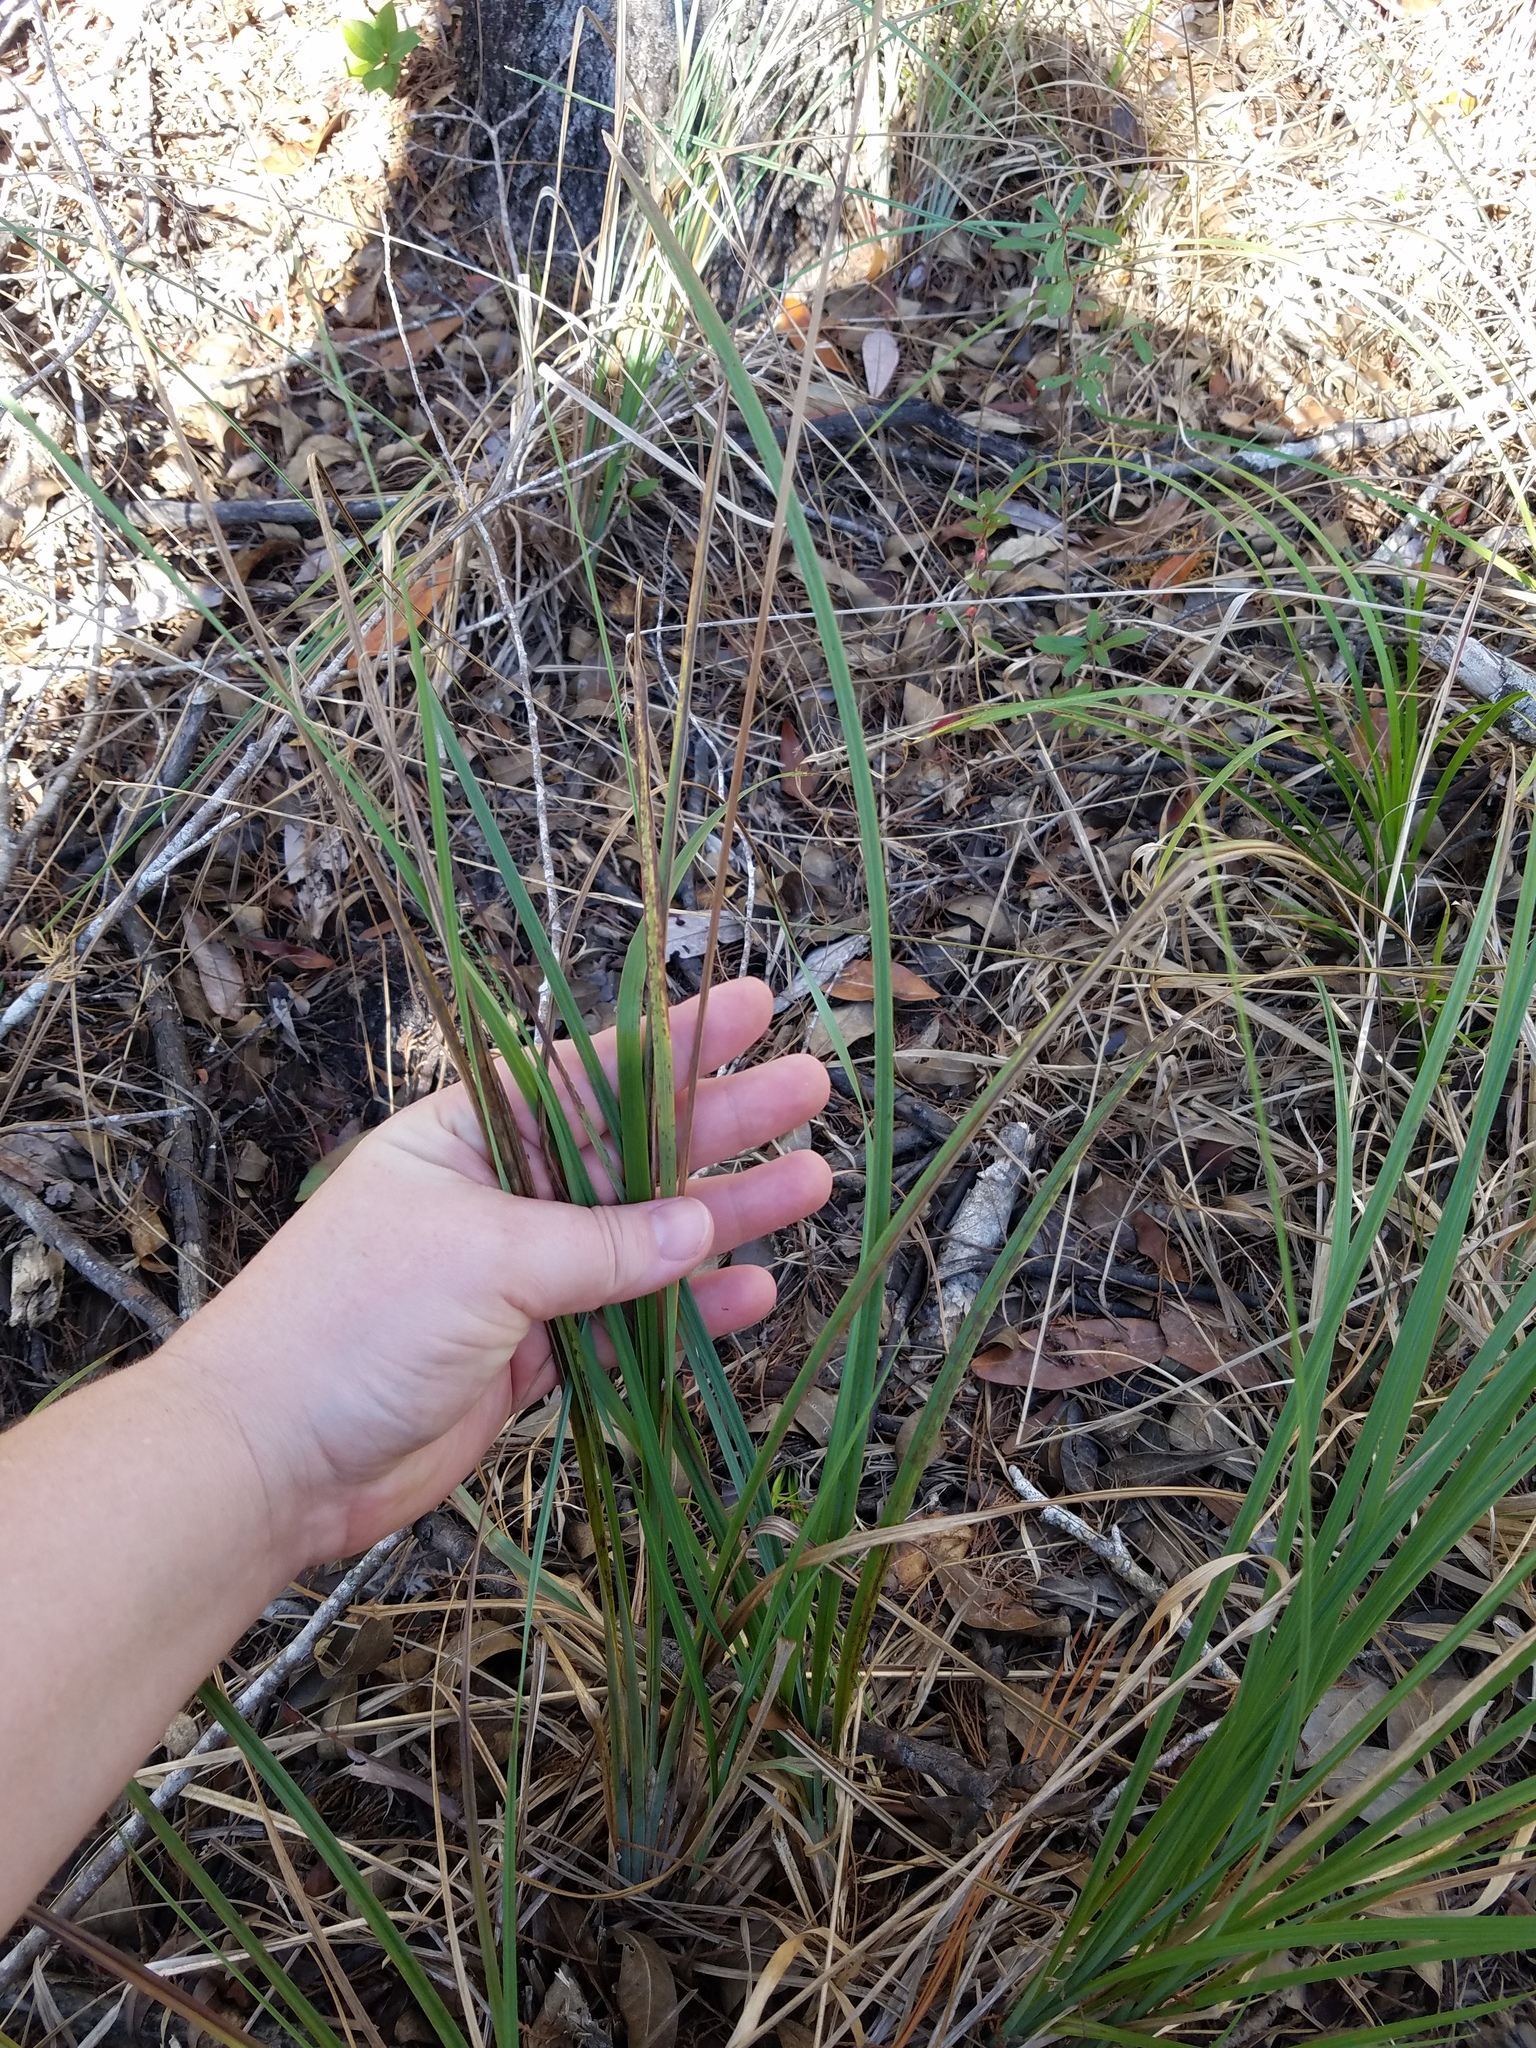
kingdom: Plantae
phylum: Tracheophyta
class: Liliopsida
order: Poales
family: Cyperaceae
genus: Carex
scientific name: Carex glaucescens
